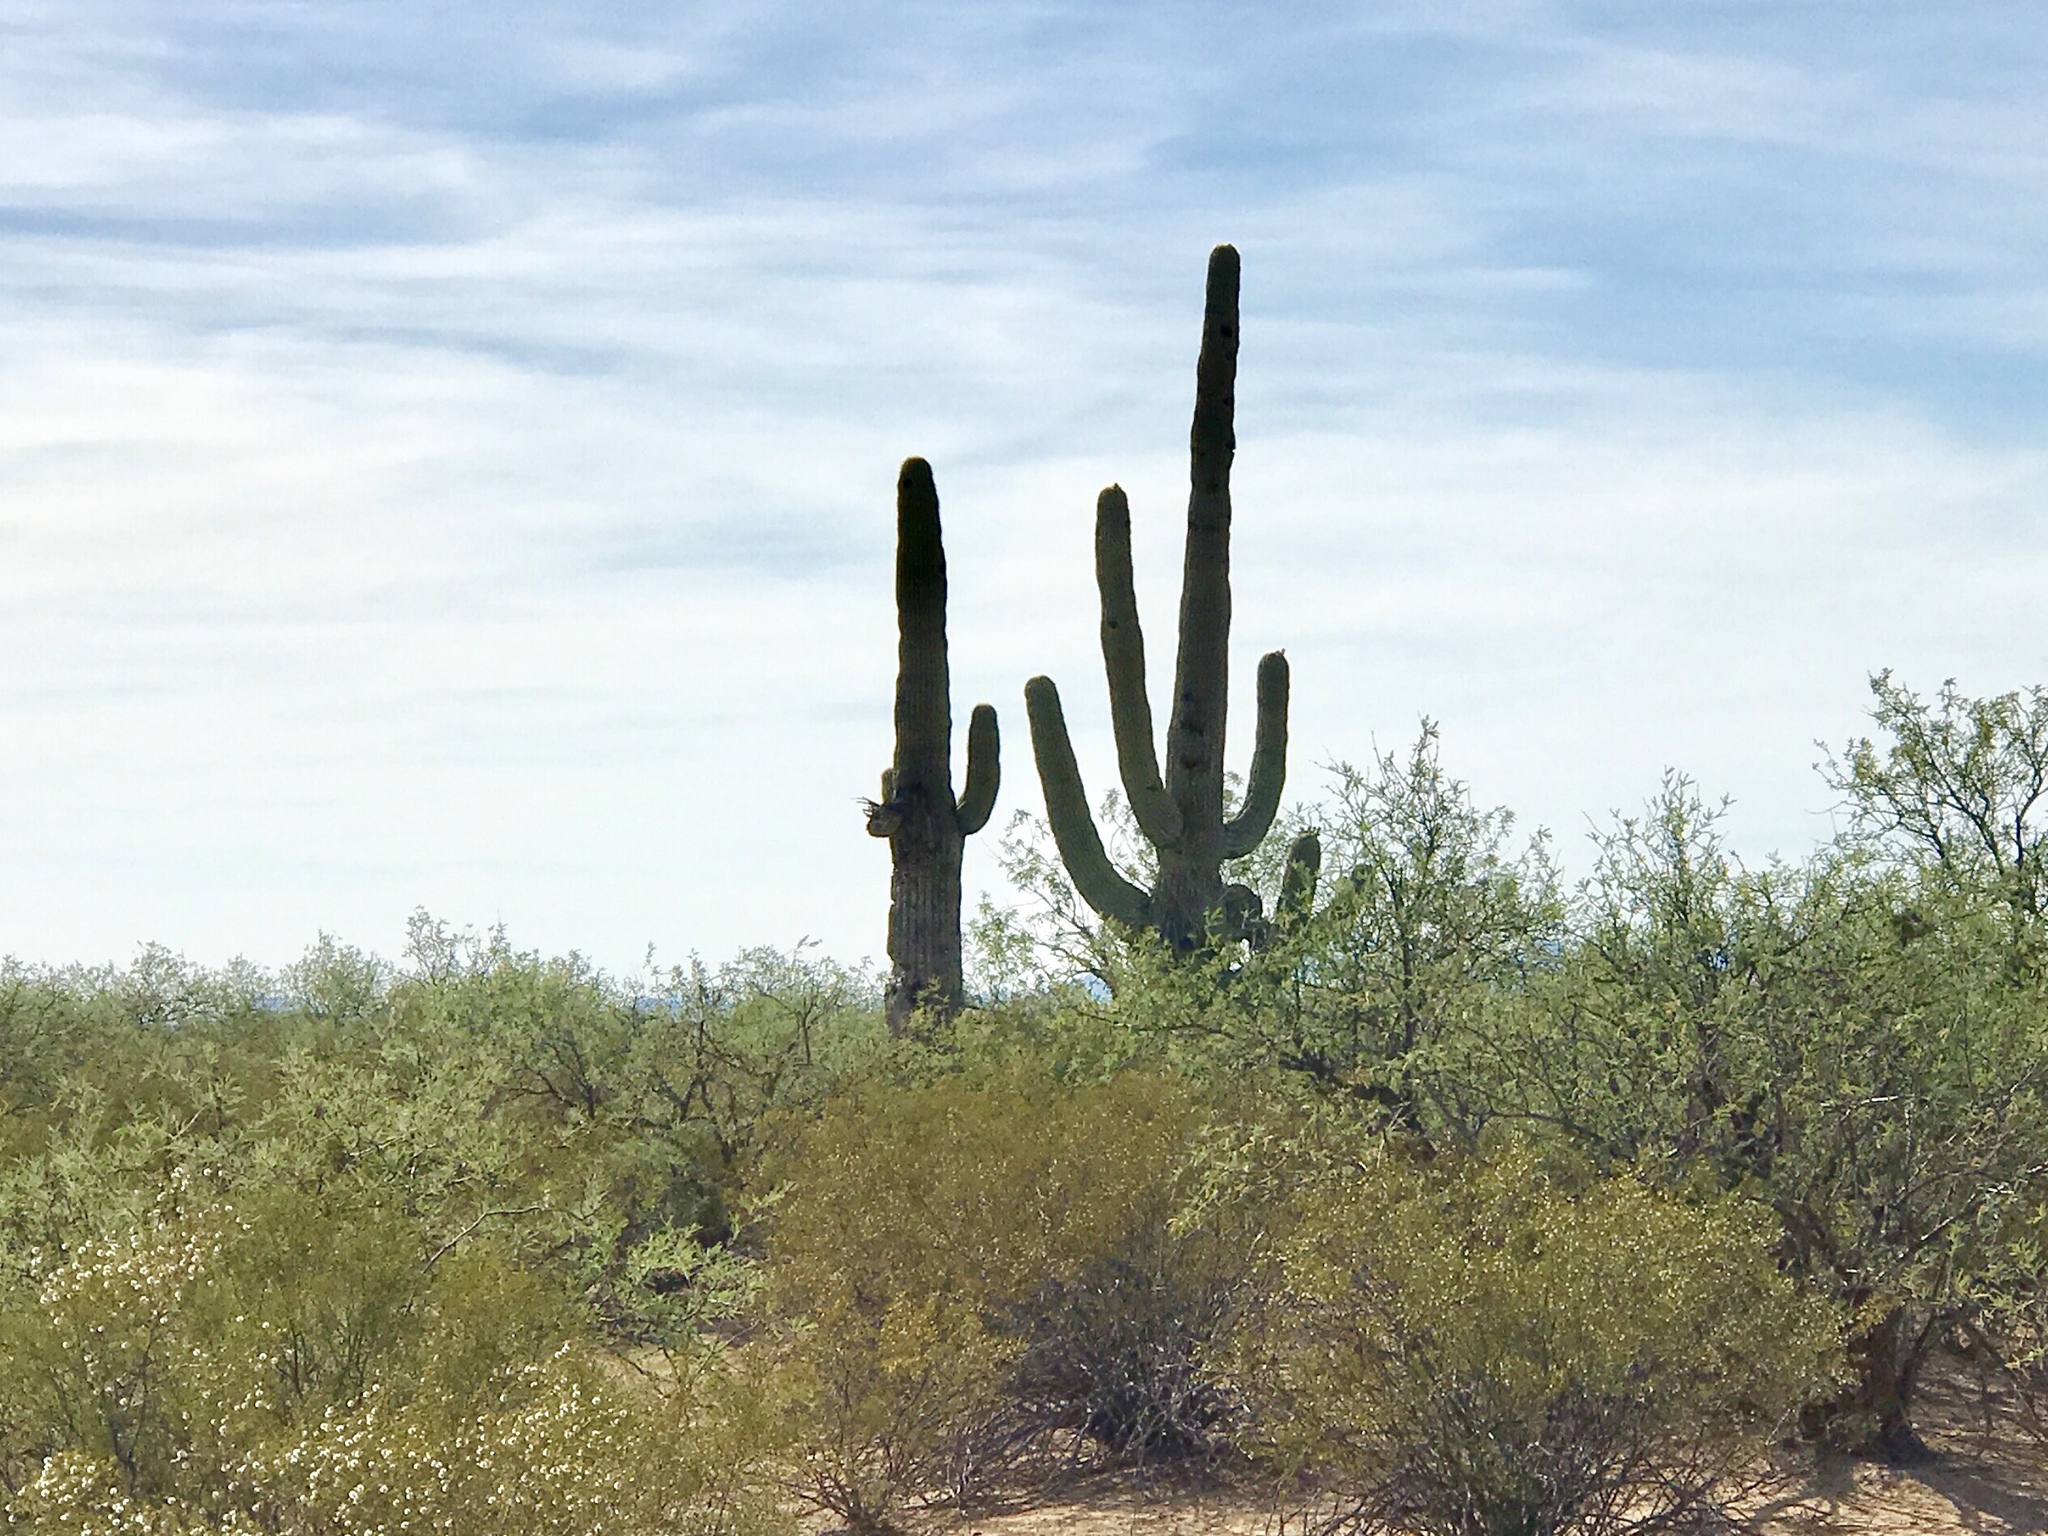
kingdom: Plantae
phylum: Tracheophyta
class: Magnoliopsida
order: Caryophyllales
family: Cactaceae
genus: Carnegiea
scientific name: Carnegiea gigantea
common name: Saguaro
